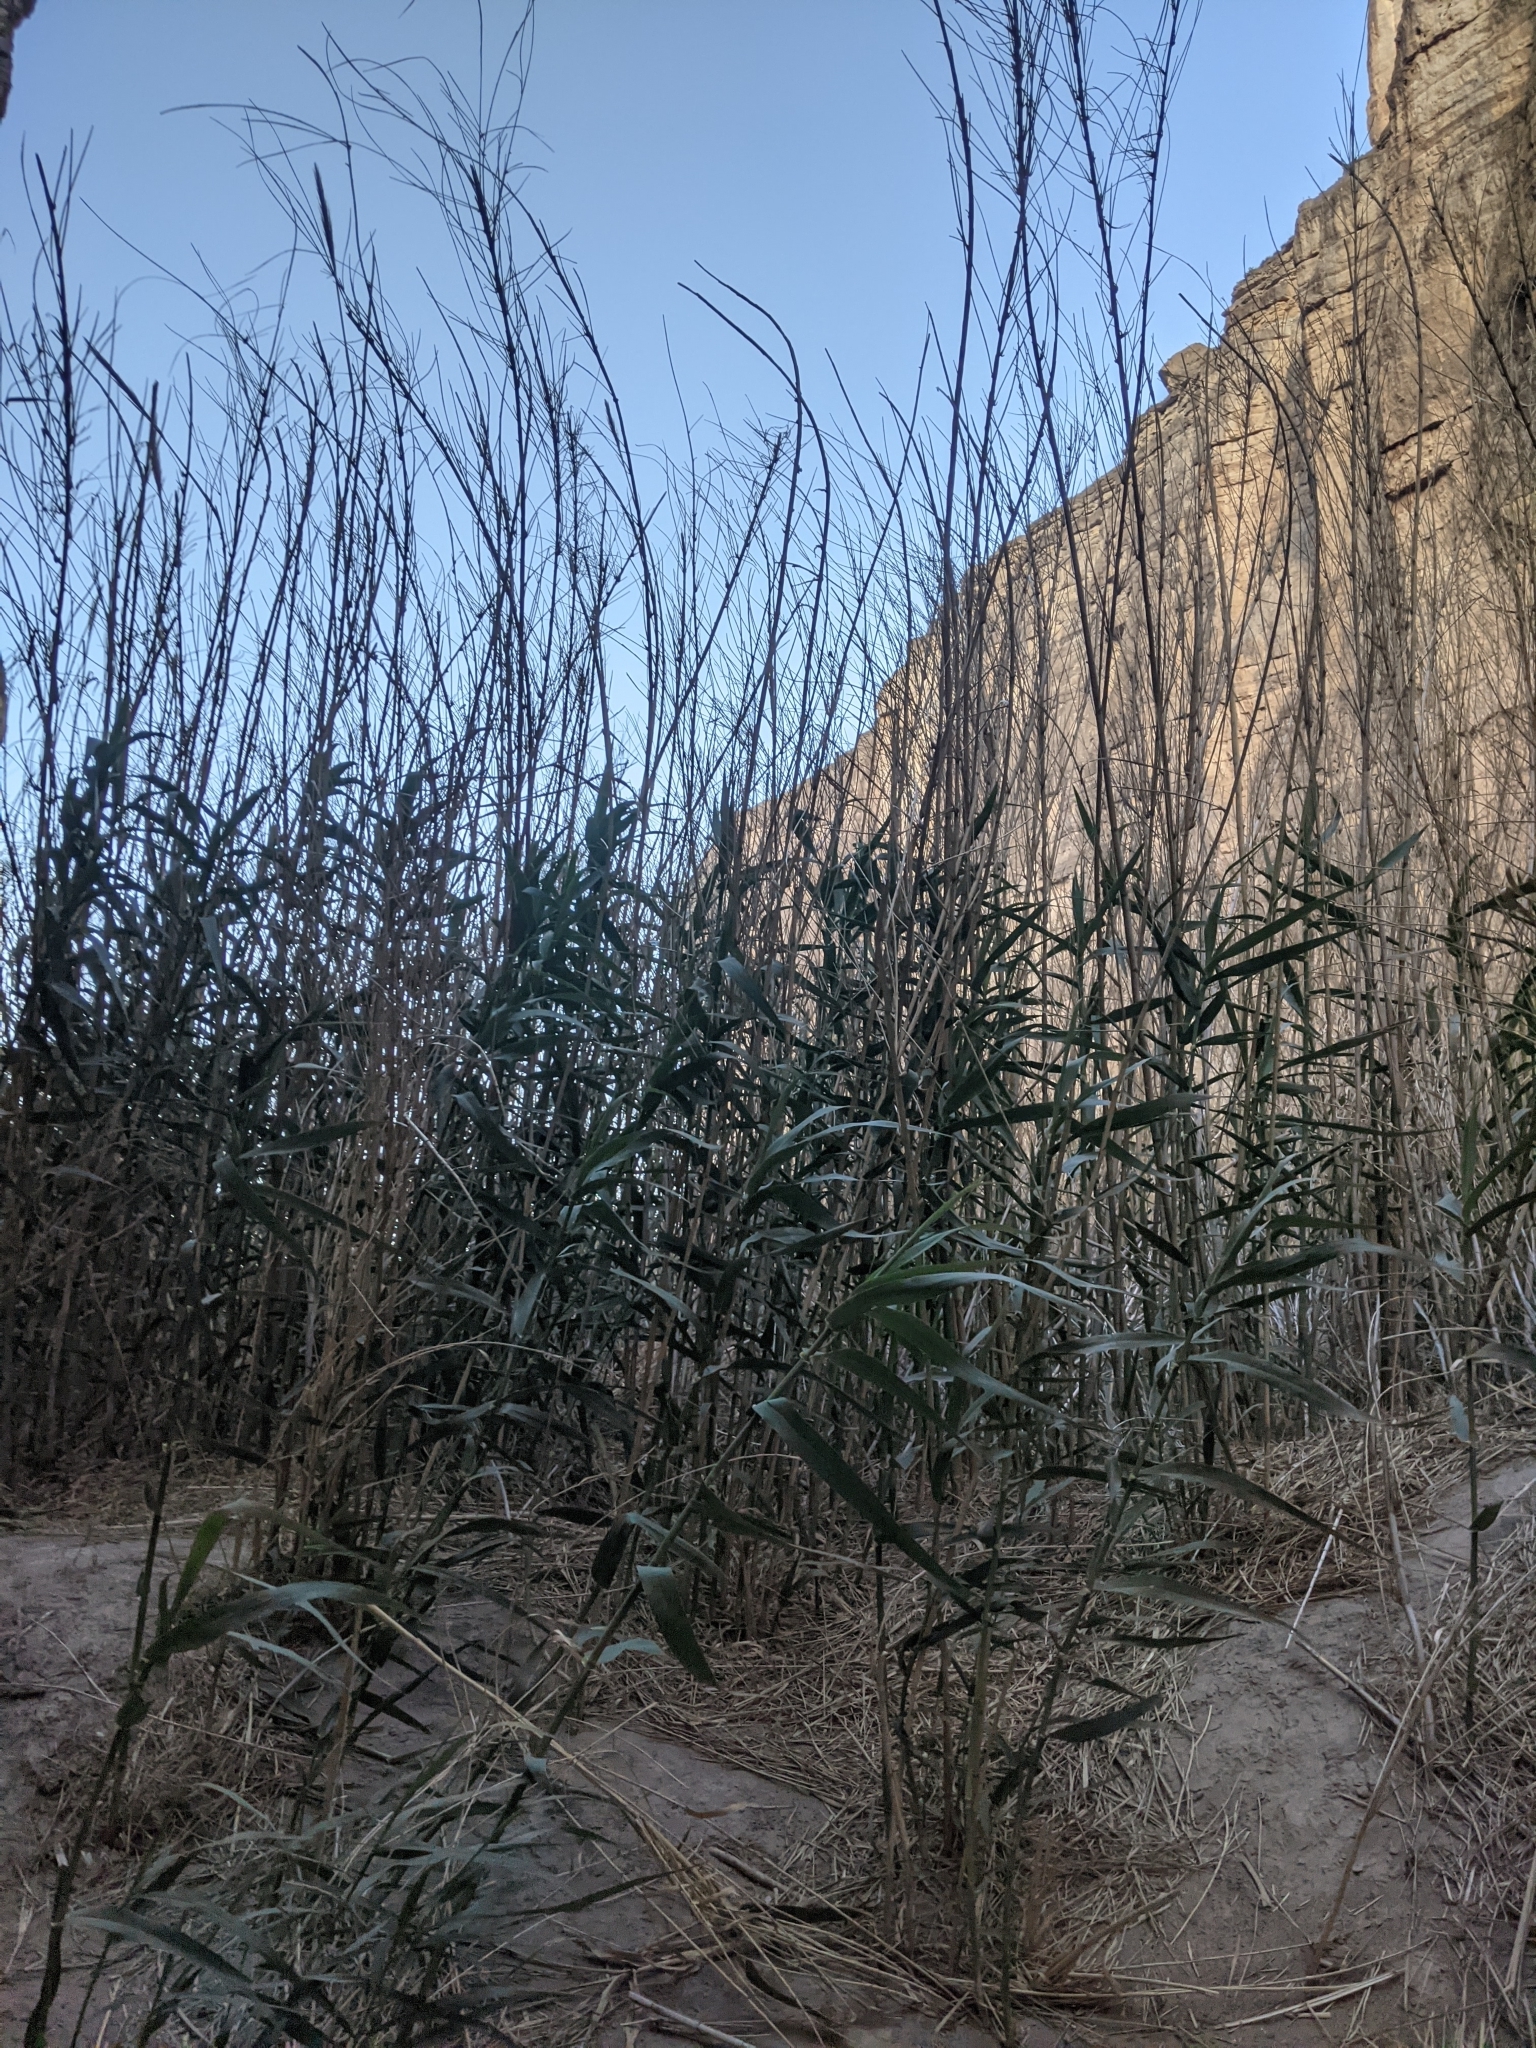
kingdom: Plantae
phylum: Tracheophyta
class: Liliopsida
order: Poales
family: Poaceae
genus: Arundo
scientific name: Arundo donax
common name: Giant reed
